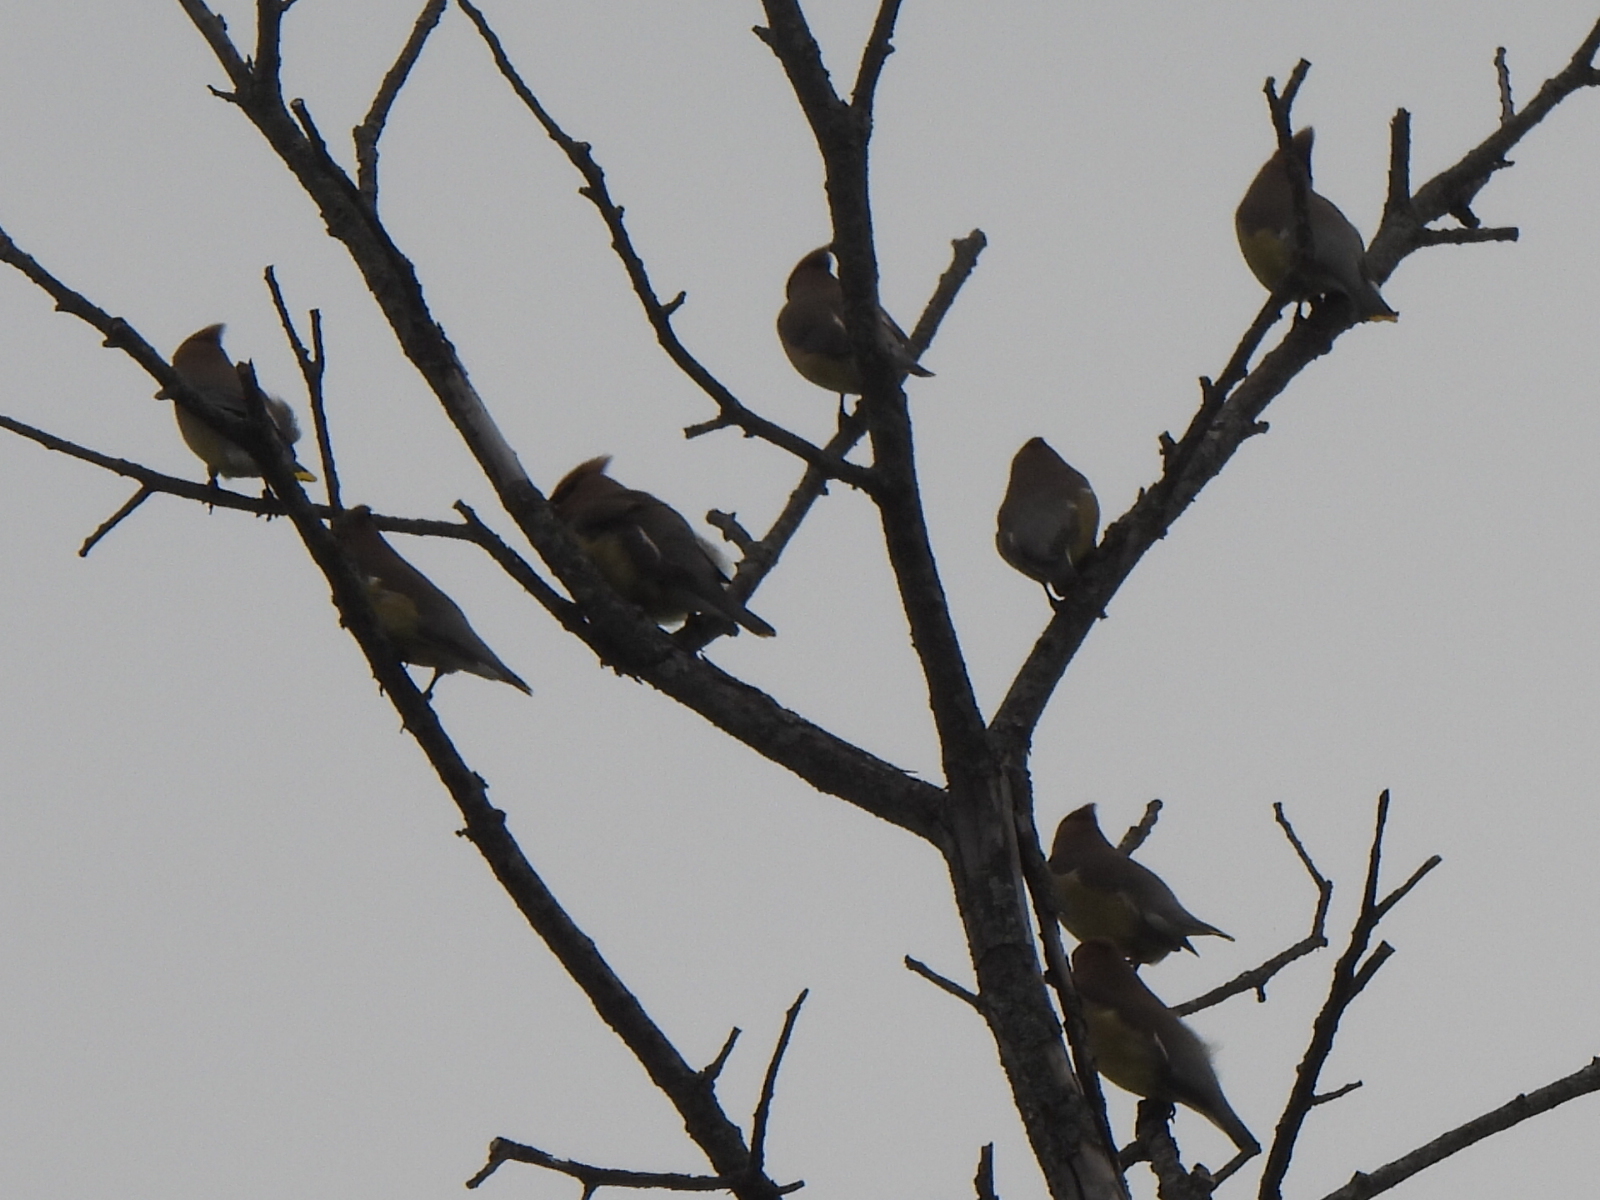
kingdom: Animalia
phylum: Chordata
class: Aves
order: Passeriformes
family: Bombycillidae
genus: Bombycilla
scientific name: Bombycilla cedrorum
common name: Cedar waxwing
